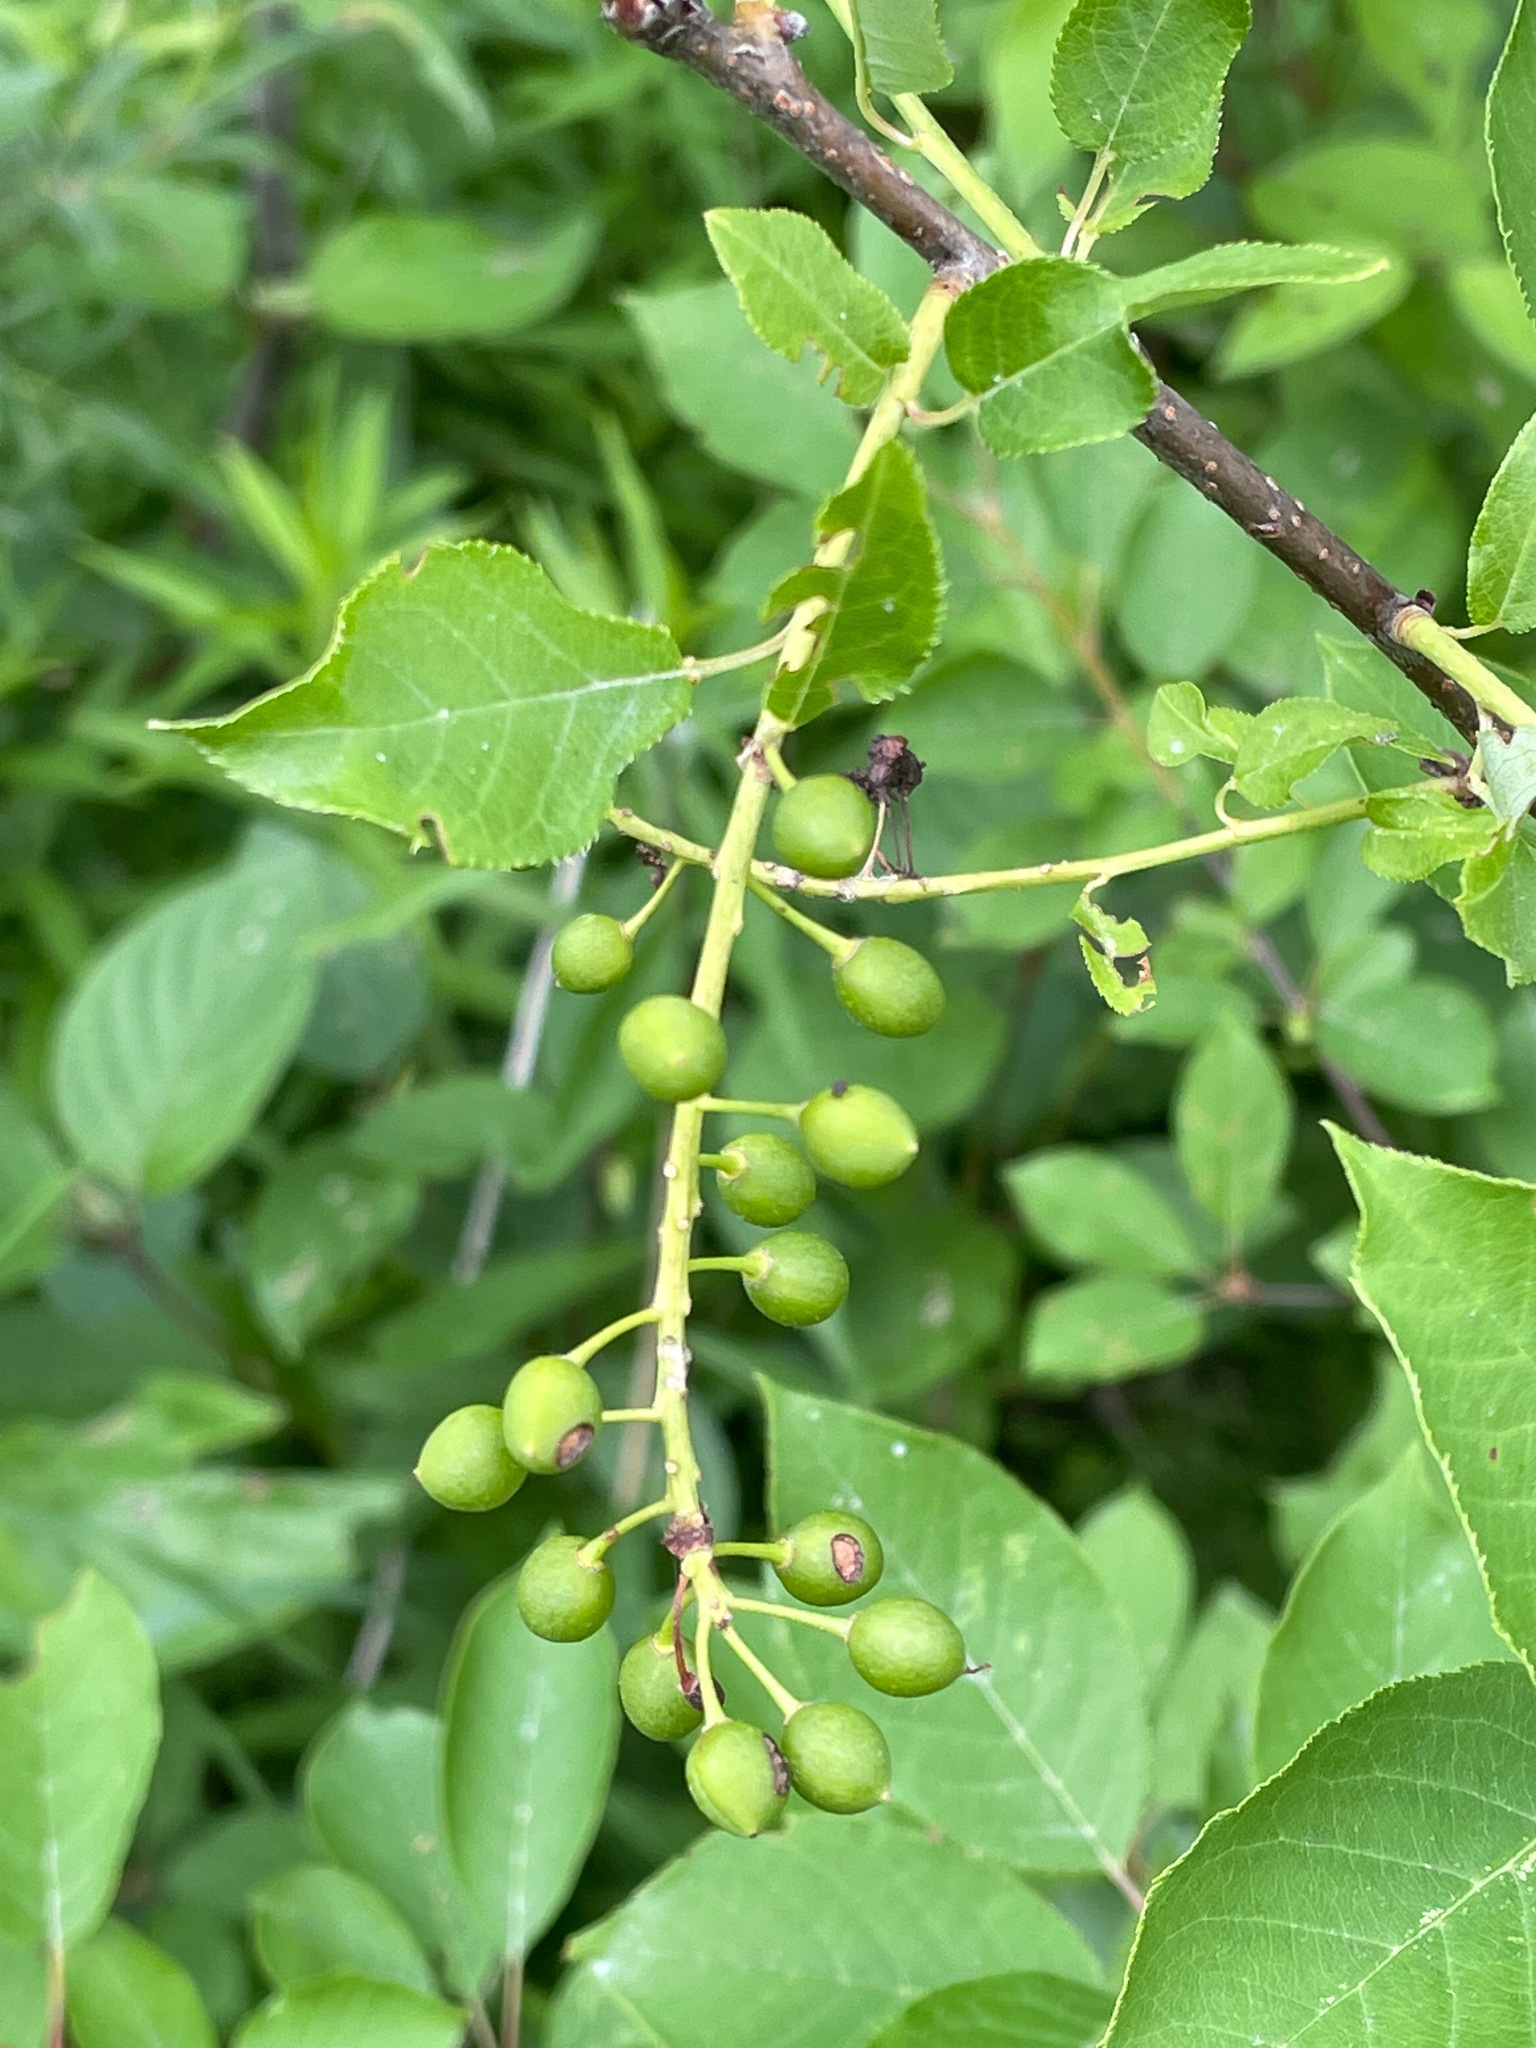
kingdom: Plantae
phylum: Tracheophyta
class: Magnoliopsida
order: Rosales
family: Rosaceae
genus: Prunus
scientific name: Prunus virginiana
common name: Chokecherry
